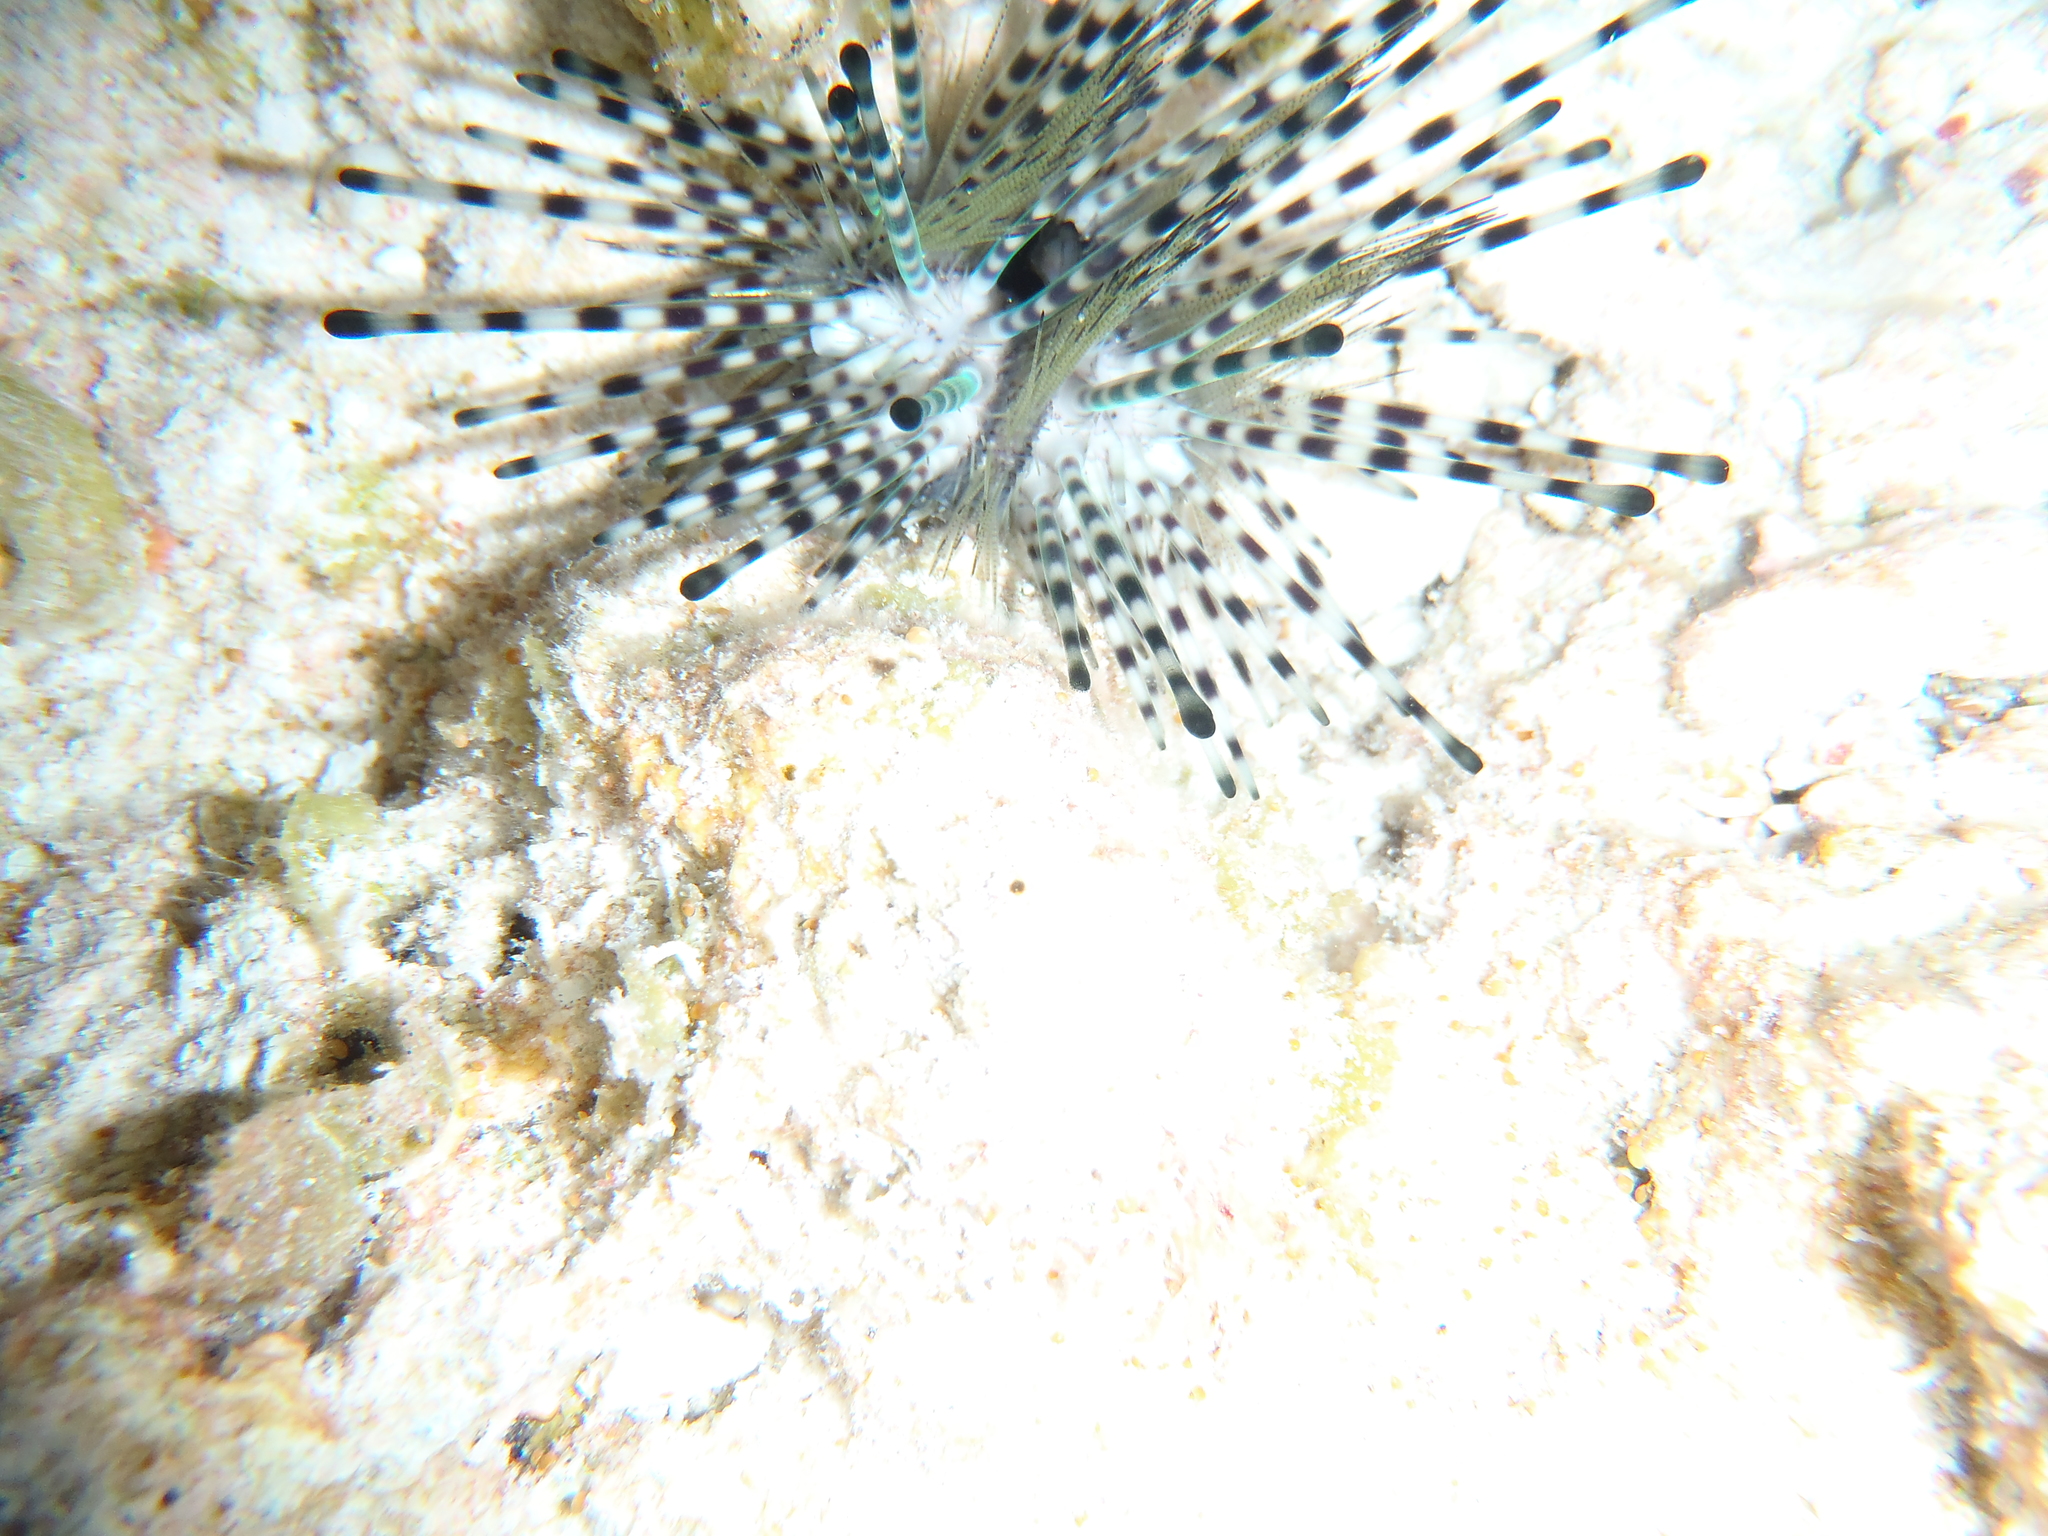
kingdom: Animalia
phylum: Echinodermata
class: Echinoidea
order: Diadematoida
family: Diadematidae
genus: Echinothrix
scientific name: Echinothrix calamaris
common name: Banded sea urchin
